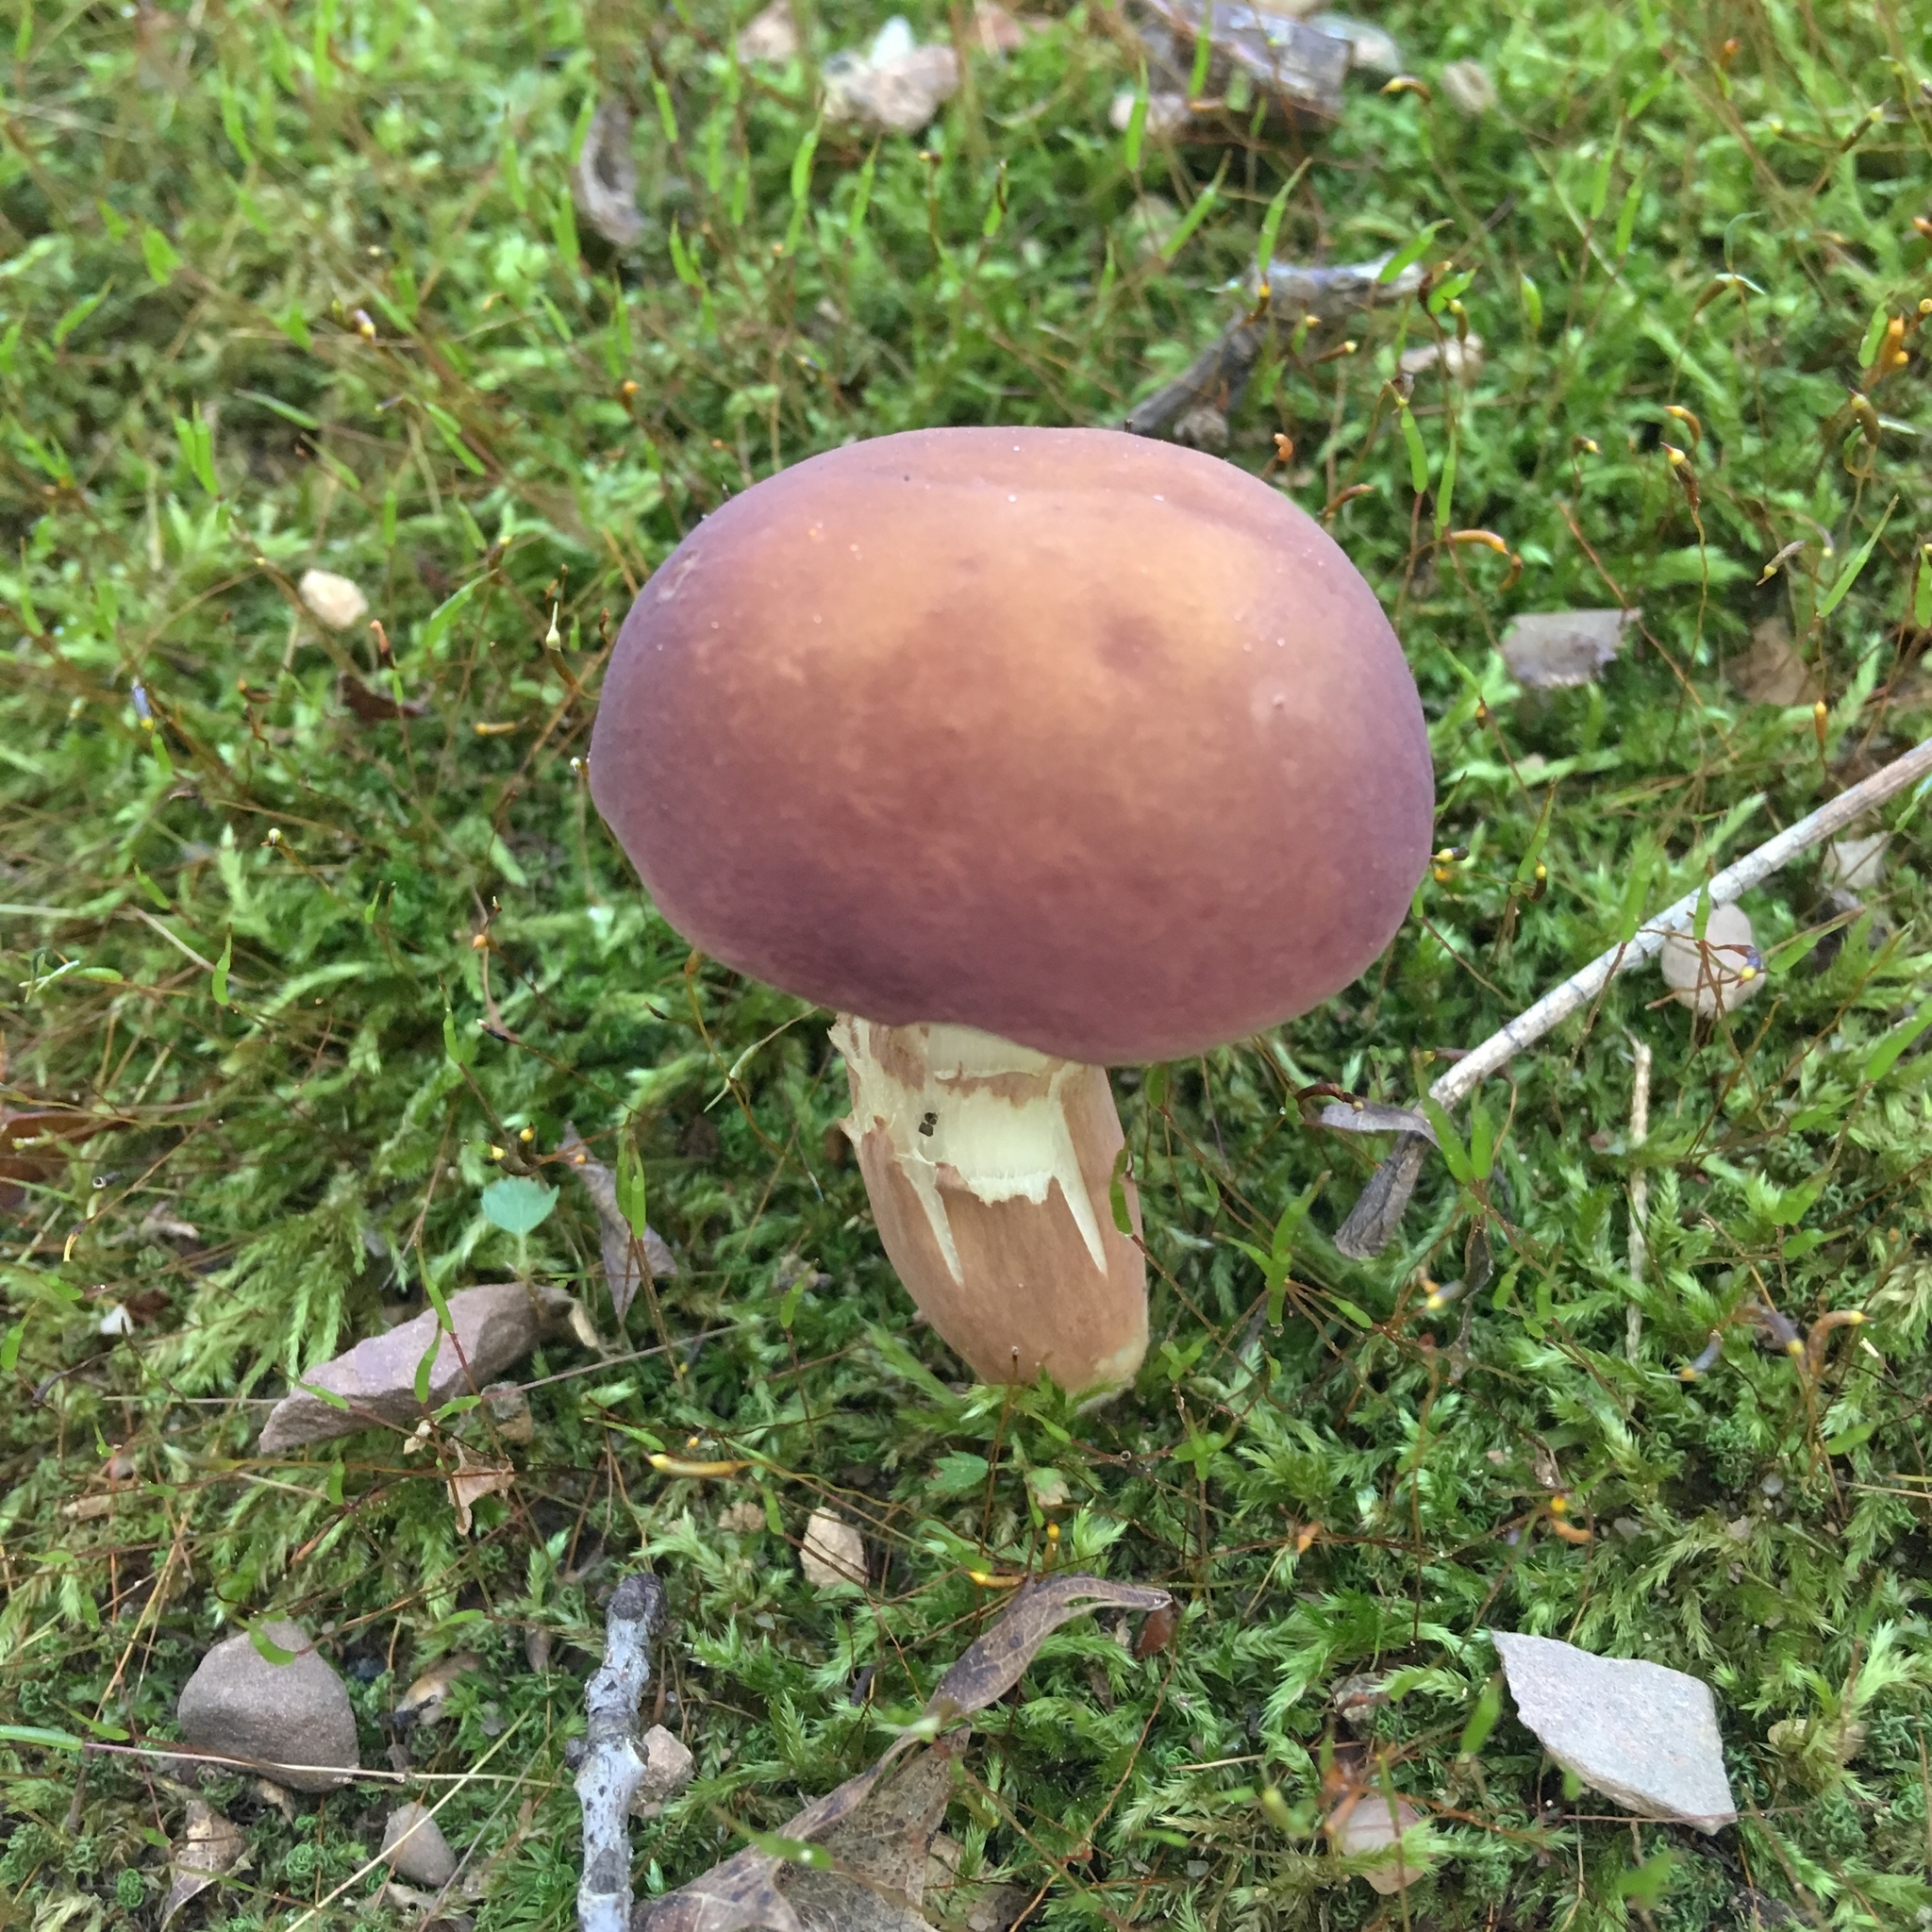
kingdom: Fungi
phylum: Basidiomycota
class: Agaricomycetes
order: Boletales
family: Boletaceae
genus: Xanthoconium
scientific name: Xanthoconium purpureum
